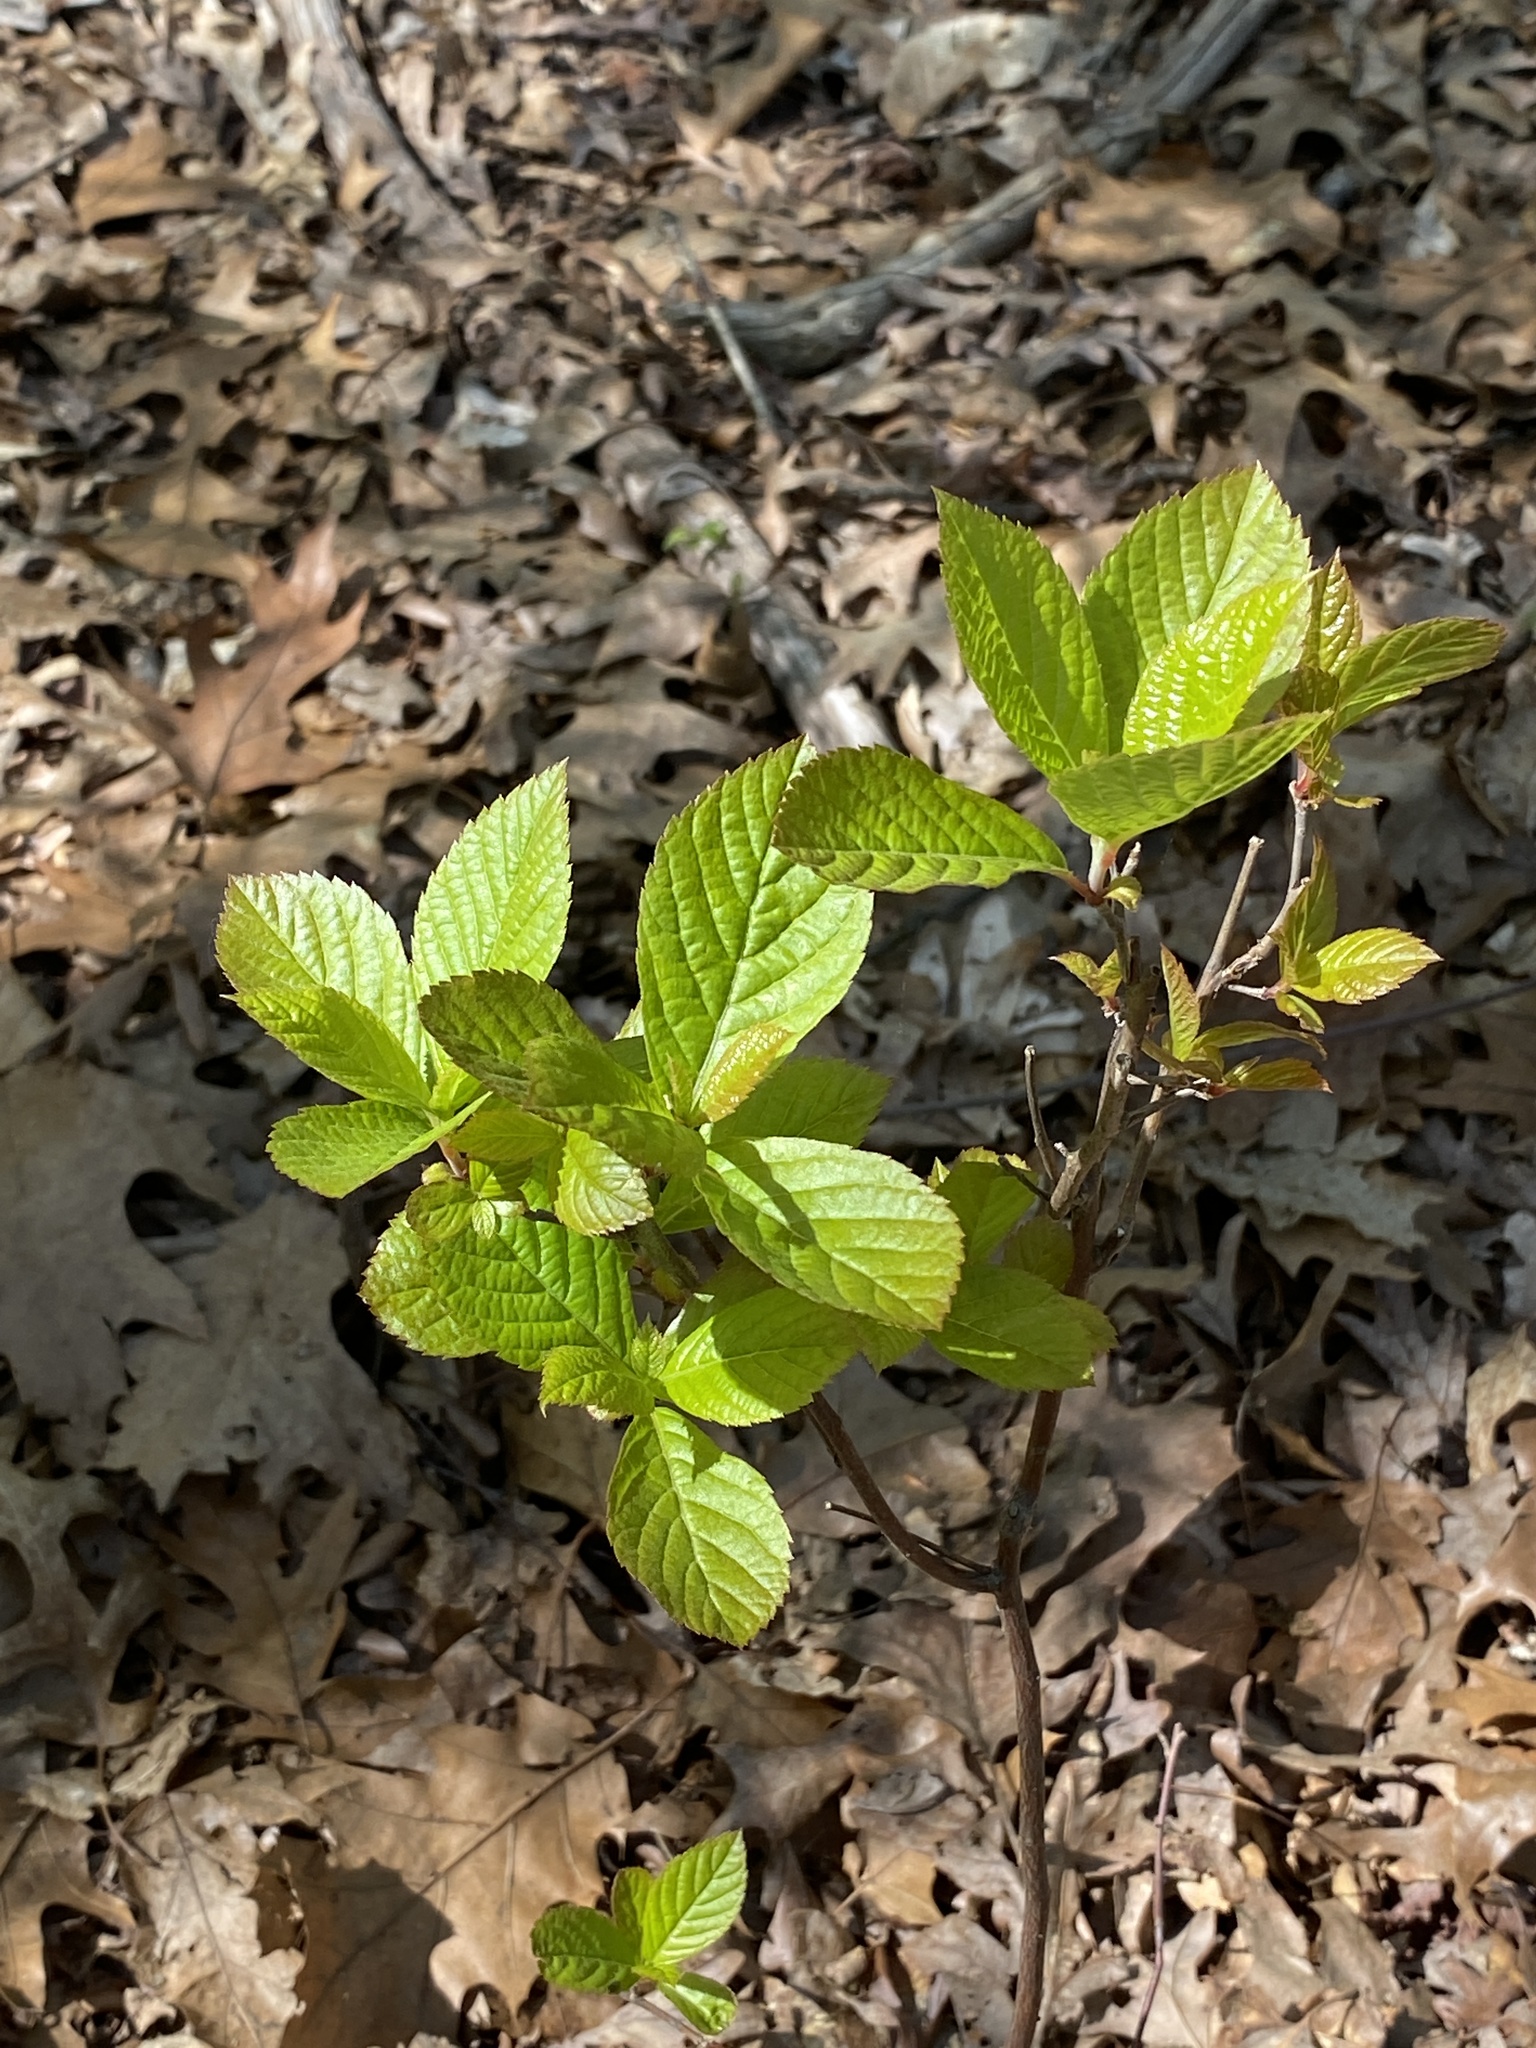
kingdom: Plantae
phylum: Tracheophyta
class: Magnoliopsida
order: Ericales
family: Clethraceae
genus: Clethra
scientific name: Clethra alnifolia
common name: Sweet pepperbush
